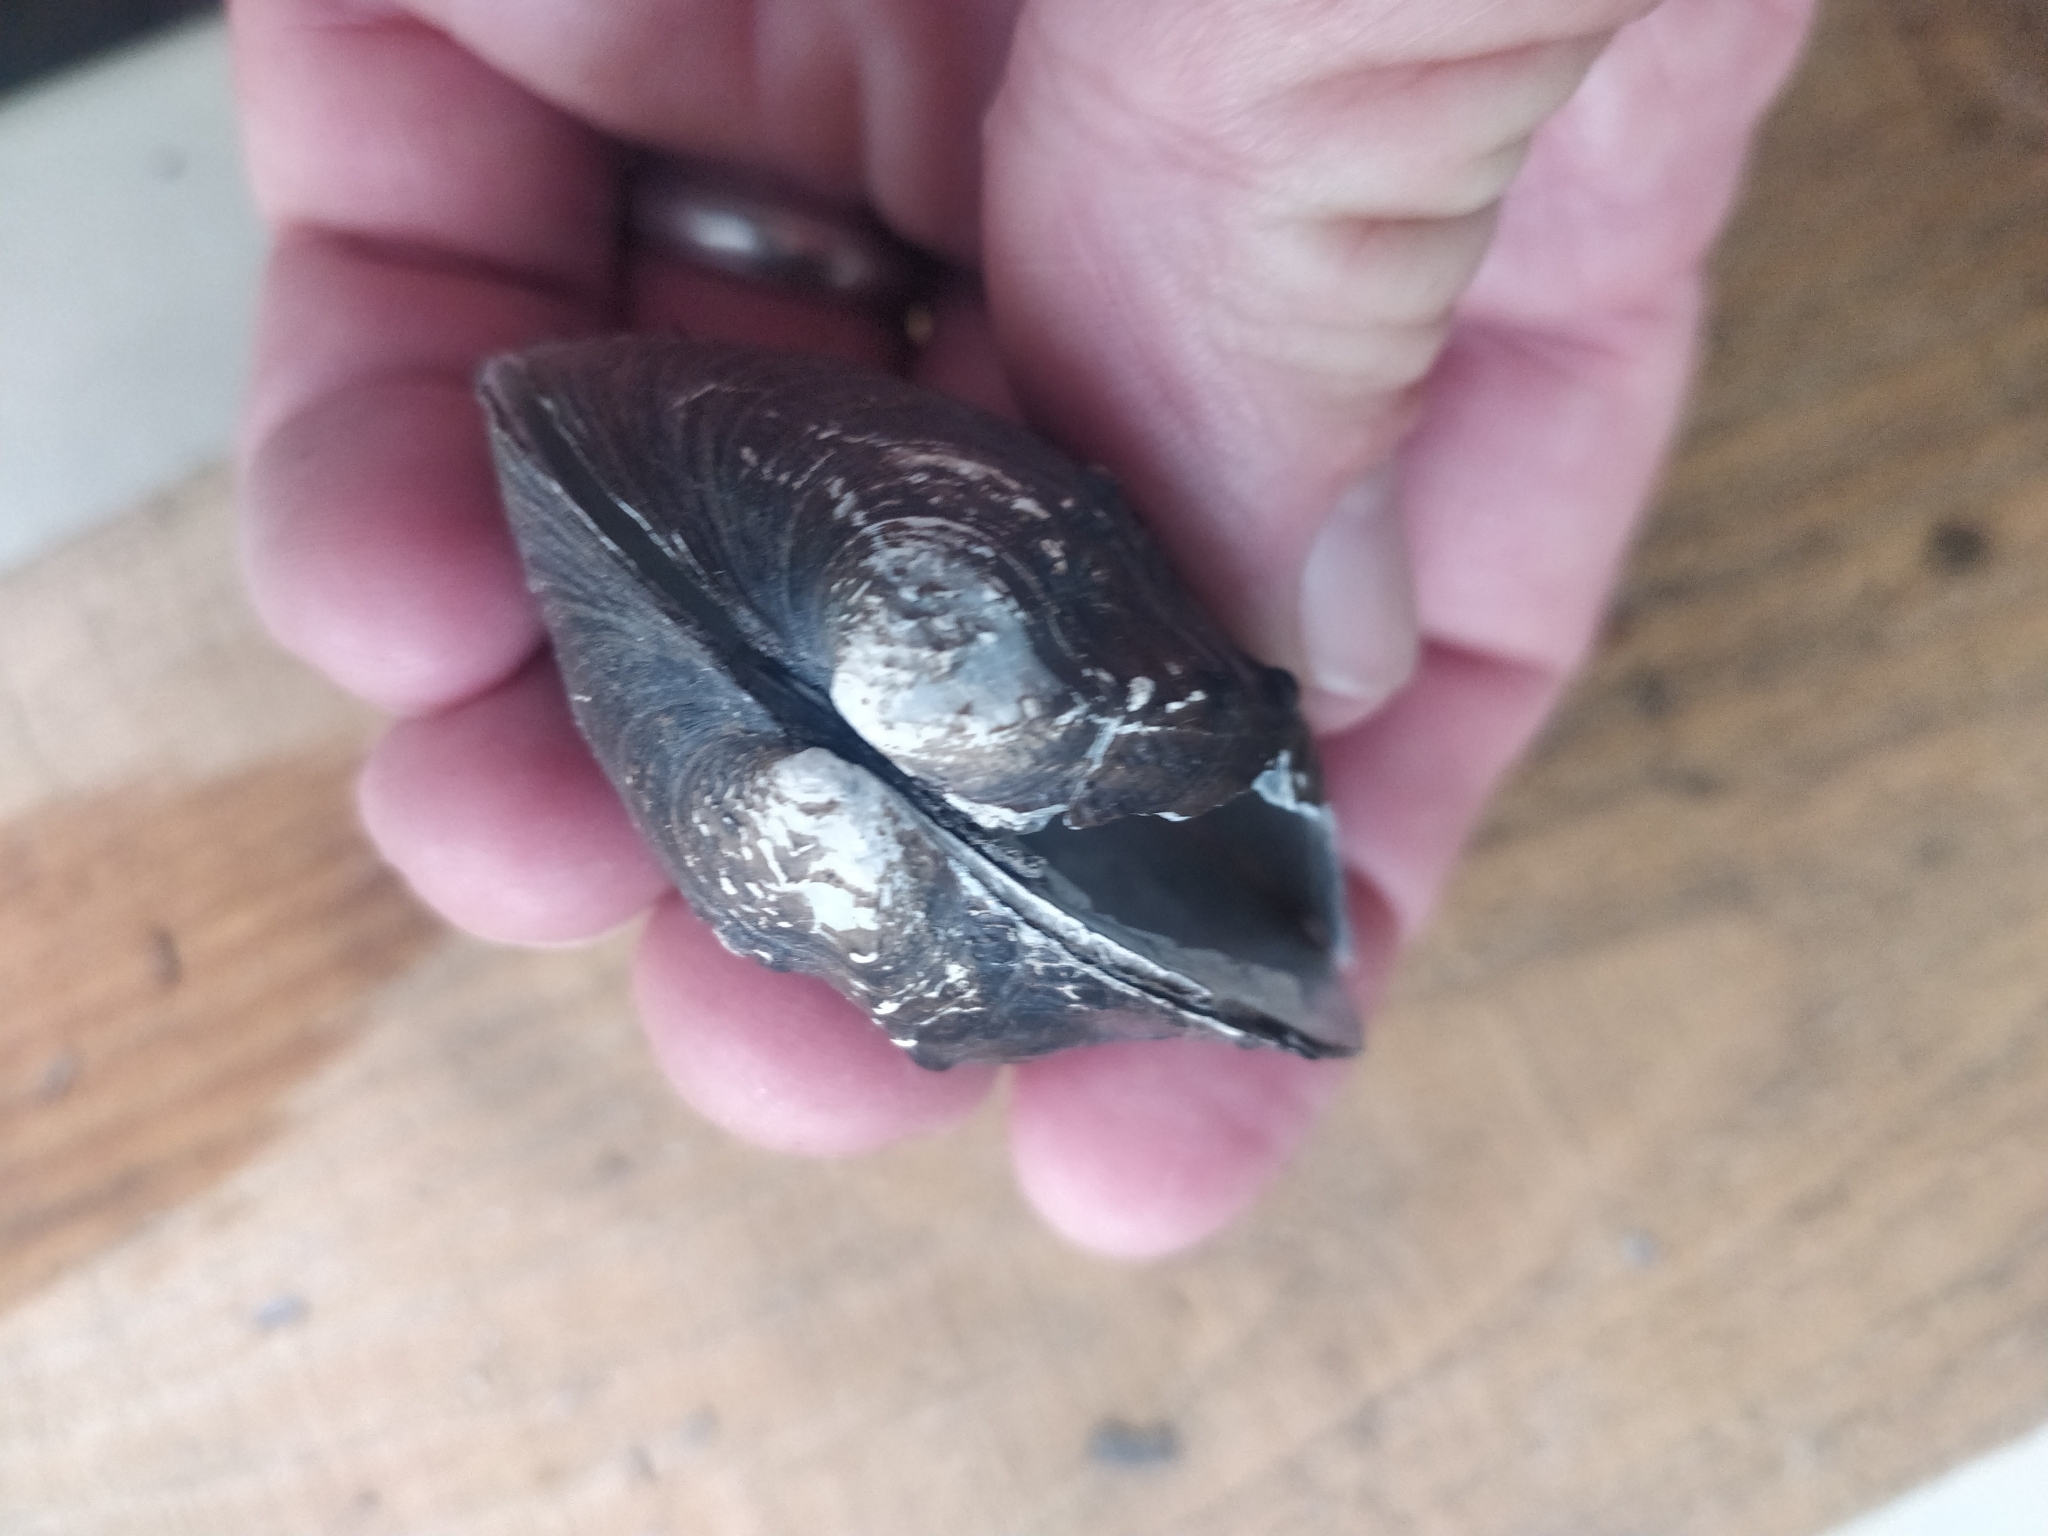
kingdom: Animalia
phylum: Mollusca
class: Bivalvia
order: Unionida
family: Unionidae
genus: Quadrula
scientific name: Quadrula quadrula
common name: Mapleleaf
